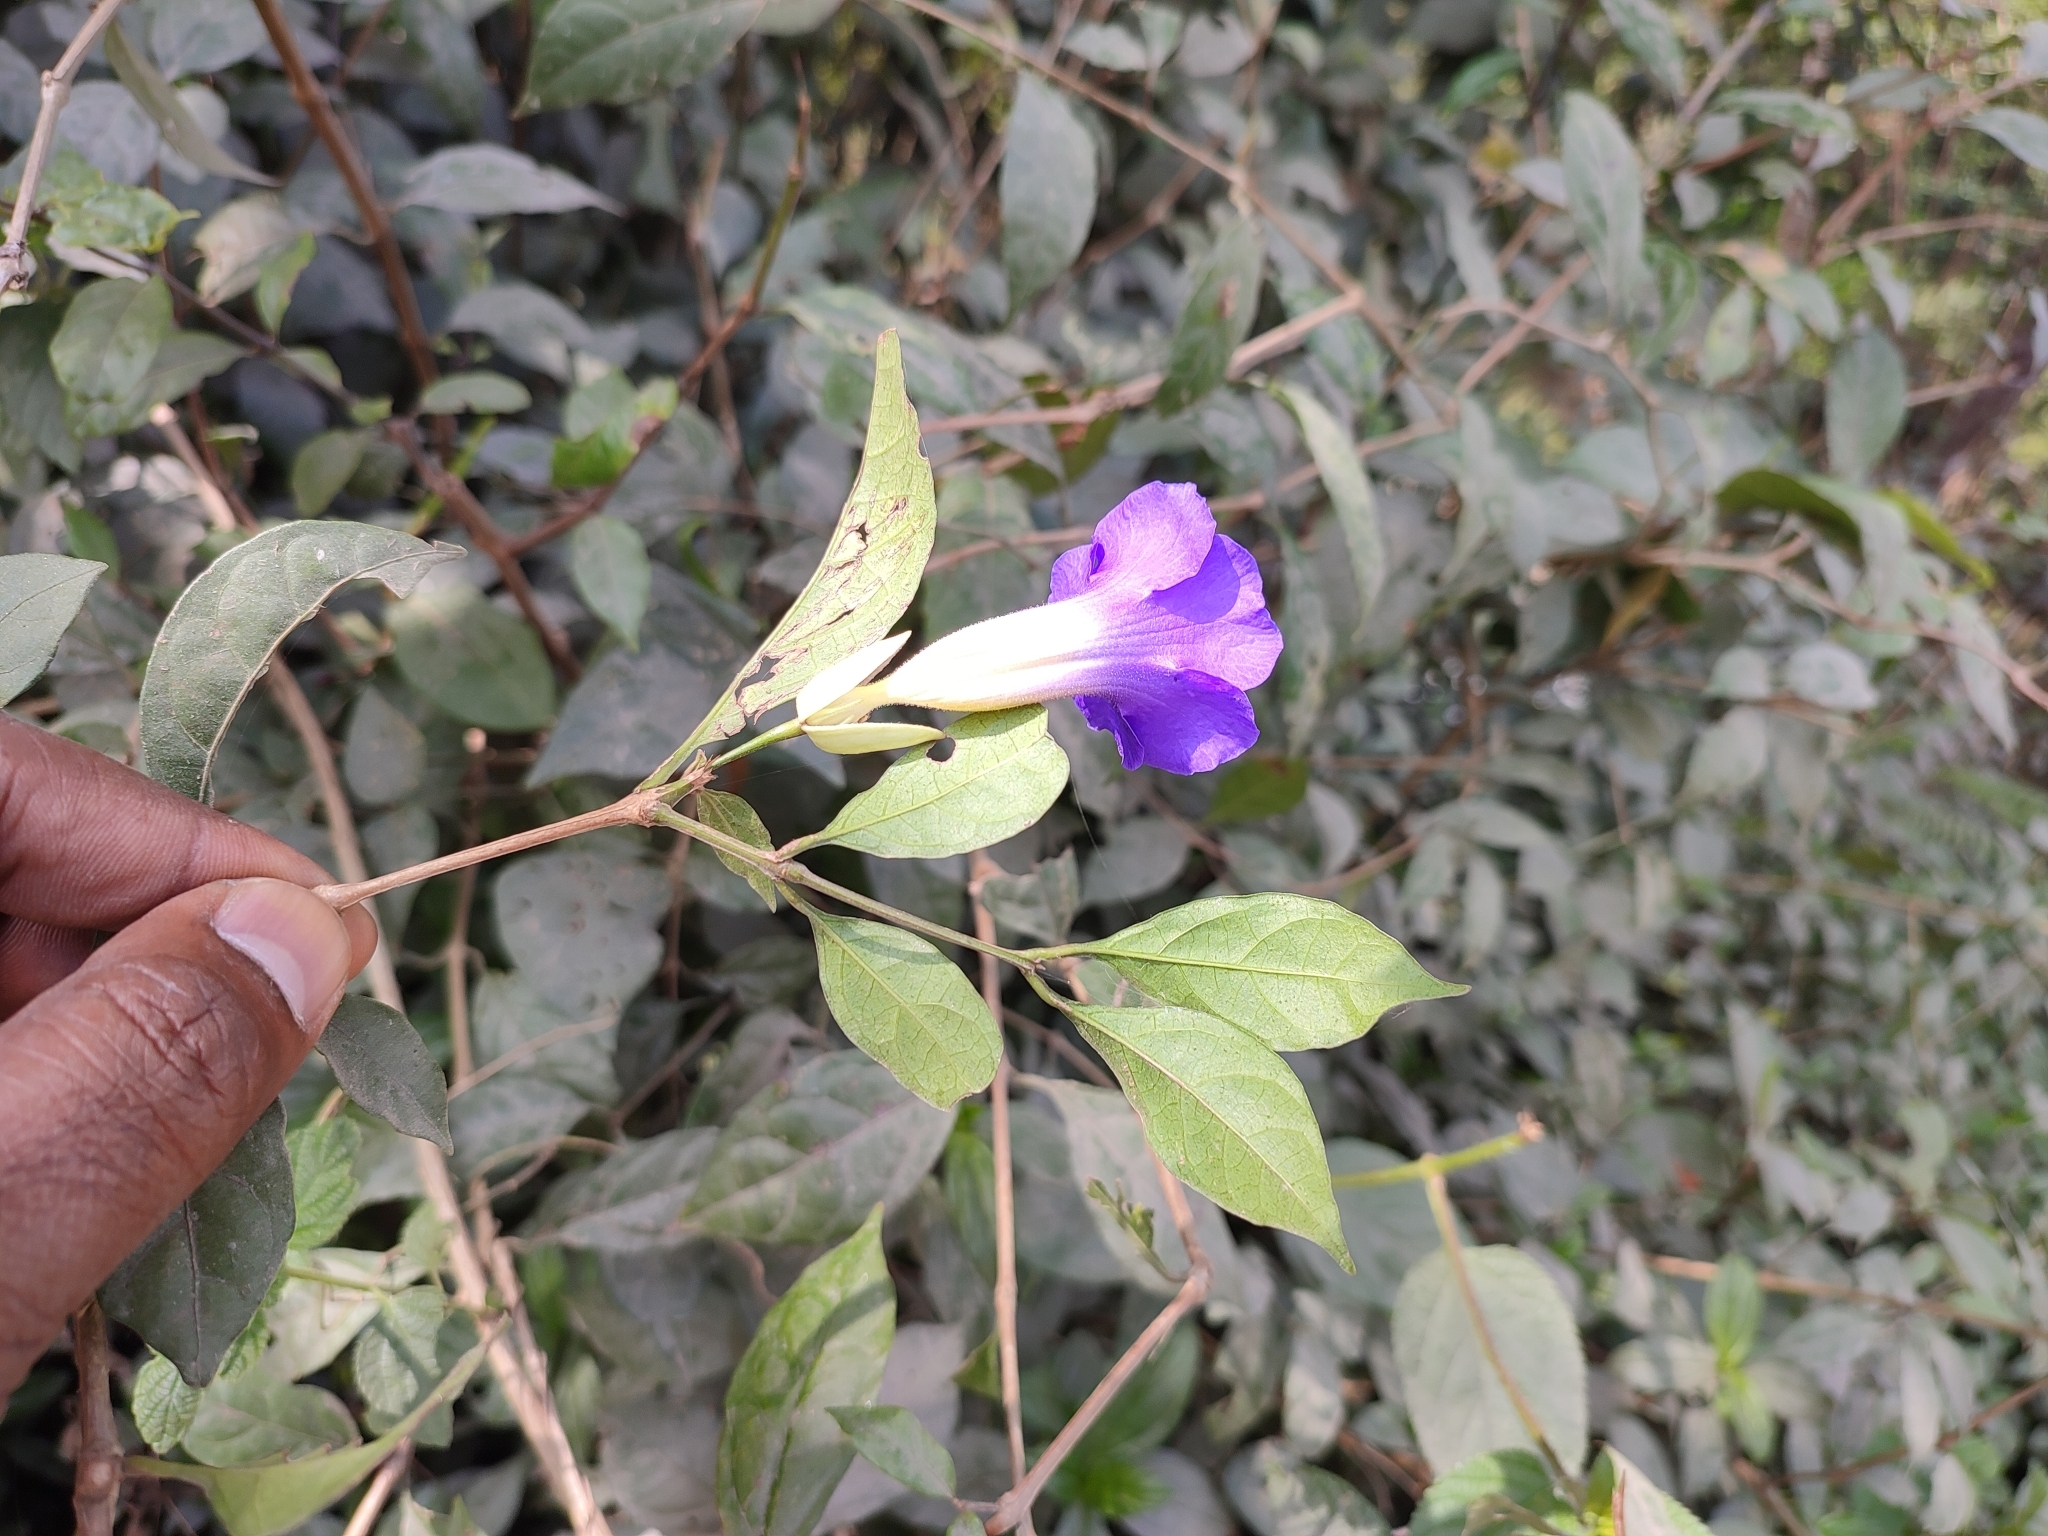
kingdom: Plantae
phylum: Tracheophyta
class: Magnoliopsida
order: Lamiales
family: Acanthaceae
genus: Thunbergia
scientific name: Thunbergia erecta
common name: Bush clockvine
